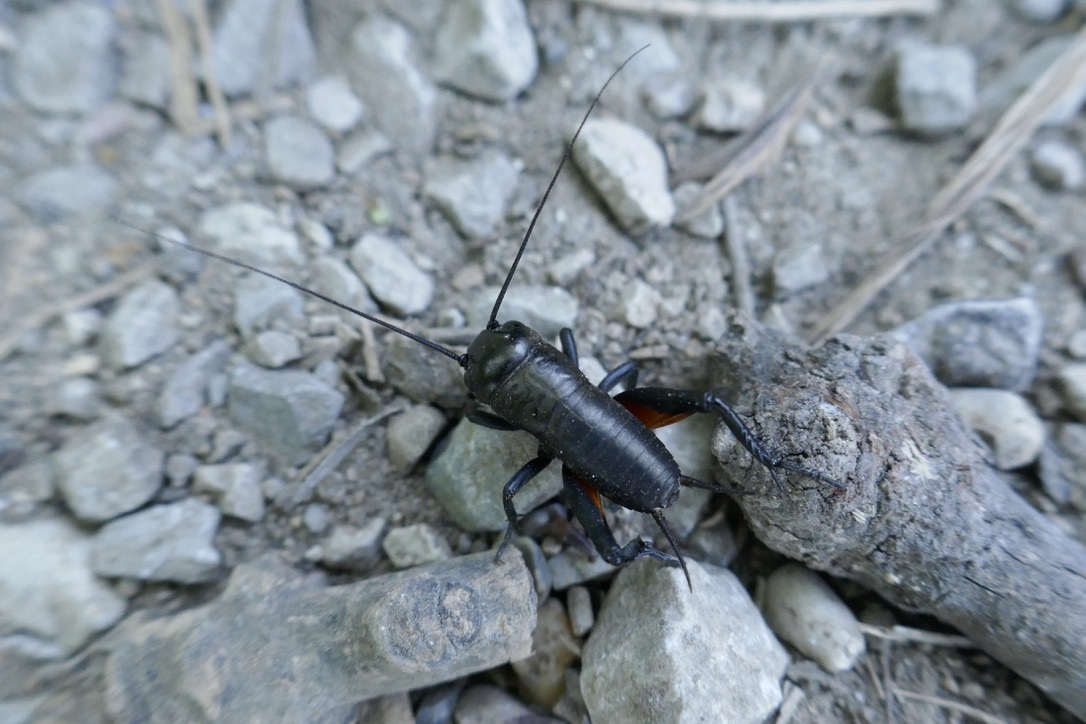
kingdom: Animalia
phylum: Arthropoda
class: Insecta
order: Orthoptera
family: Gryllidae
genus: Gryllus
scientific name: Gryllus campestris
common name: Field cricket
